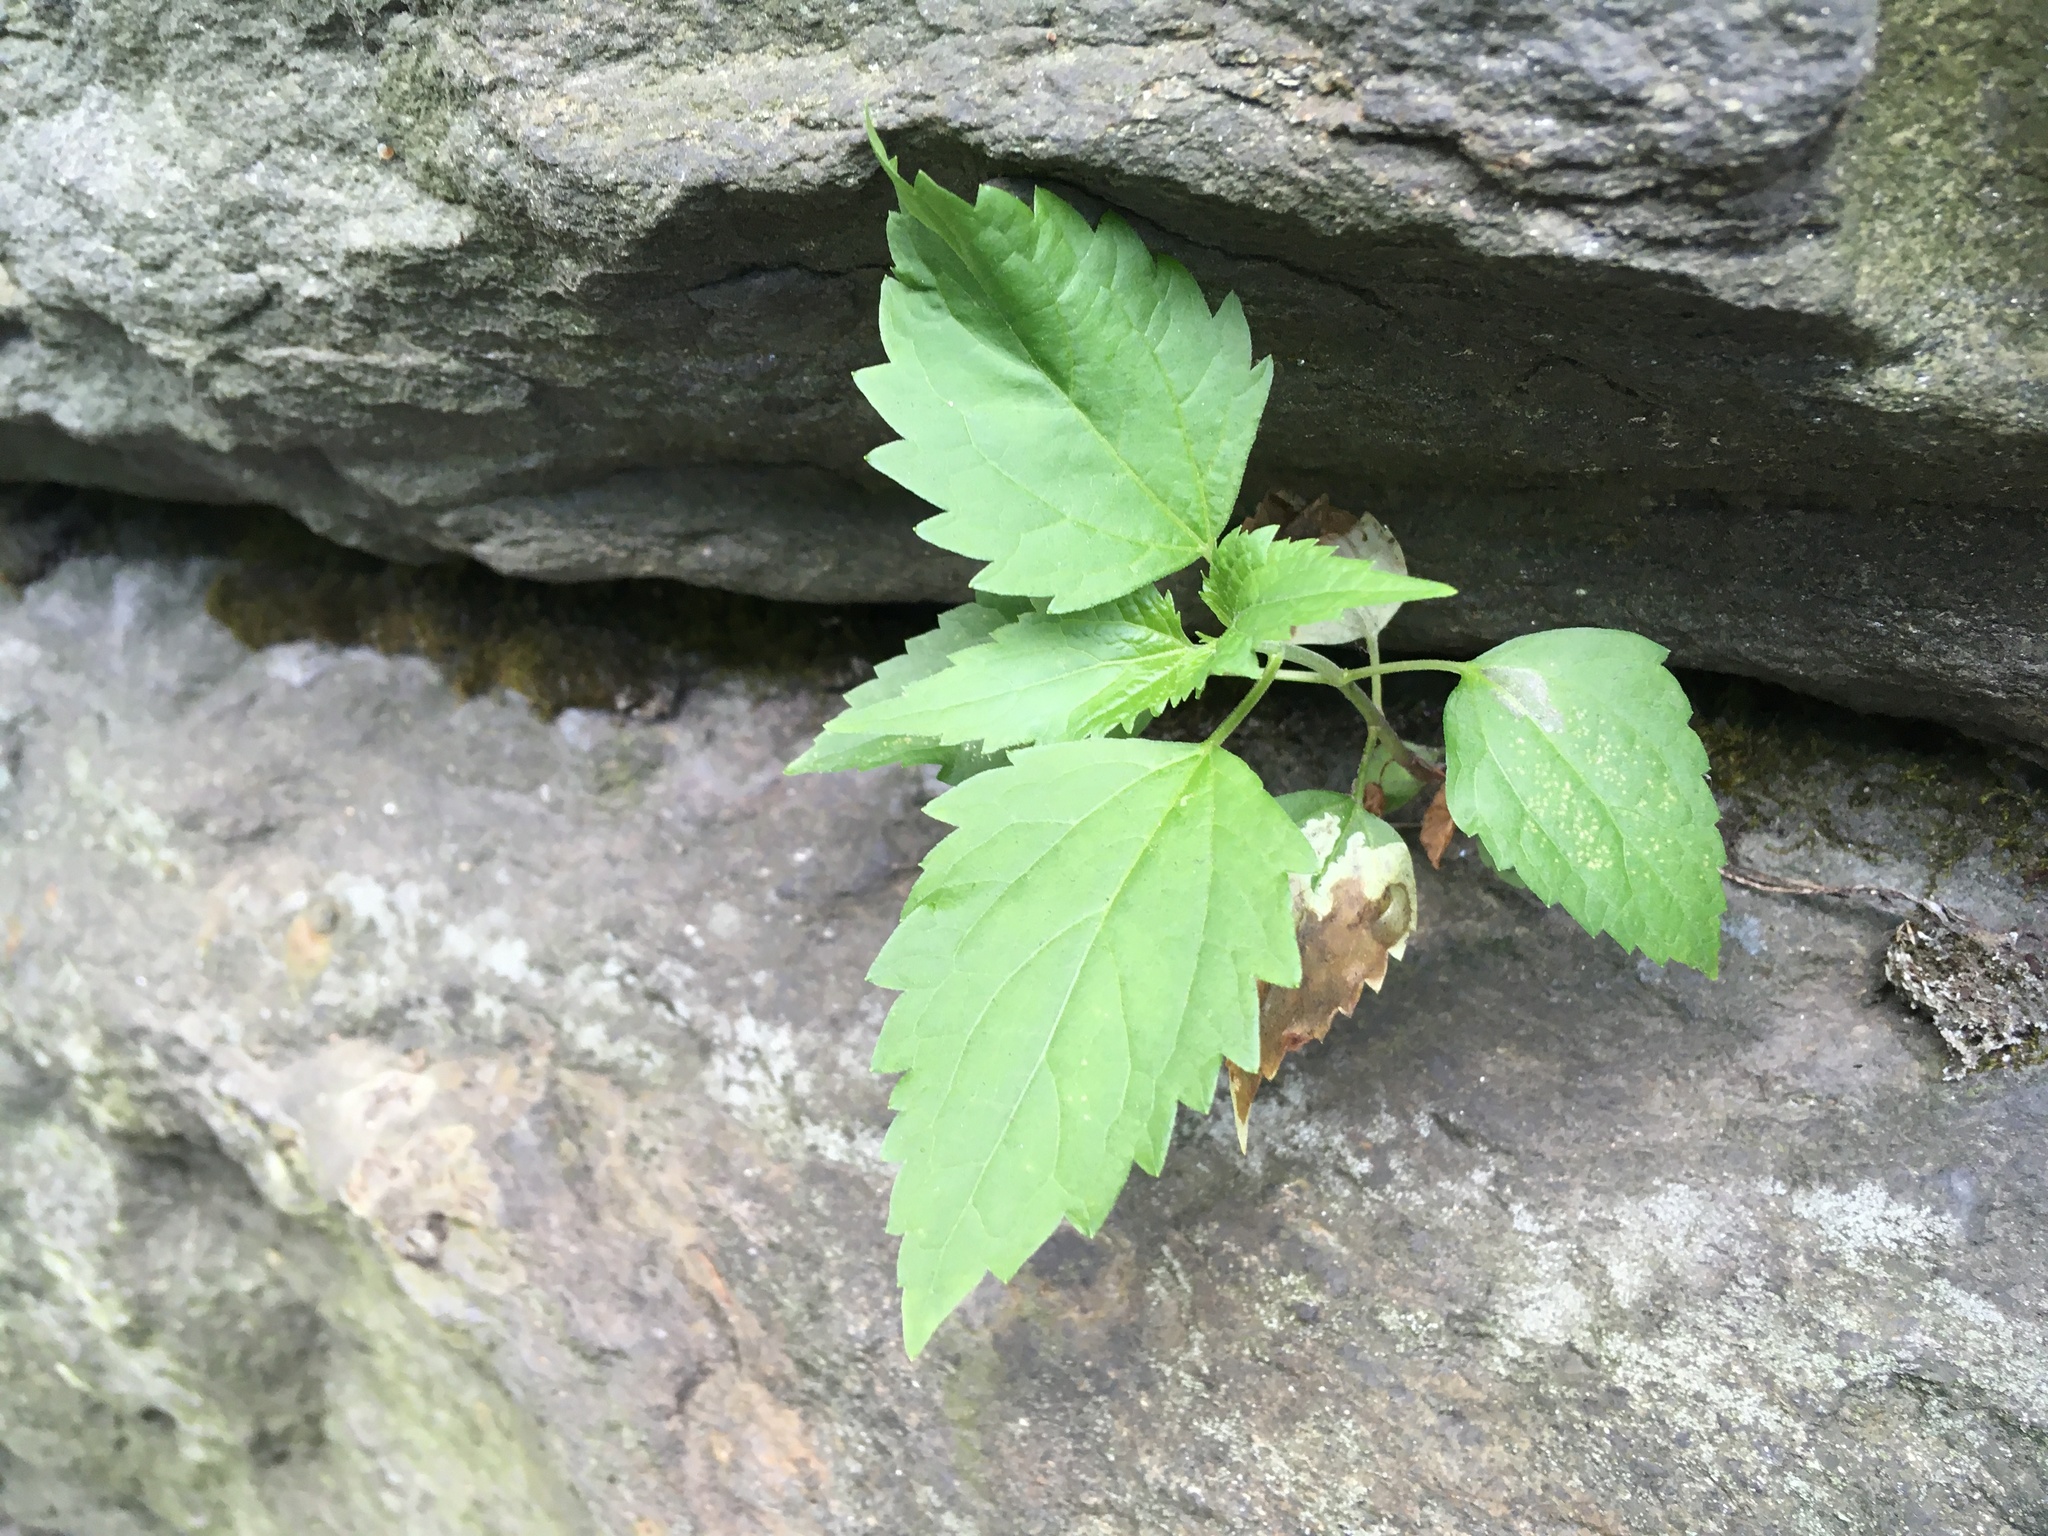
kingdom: Plantae
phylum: Tracheophyta
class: Magnoliopsida
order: Rosales
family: Urticaceae
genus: Pilea
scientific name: Pilea pumila
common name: Clearweed
